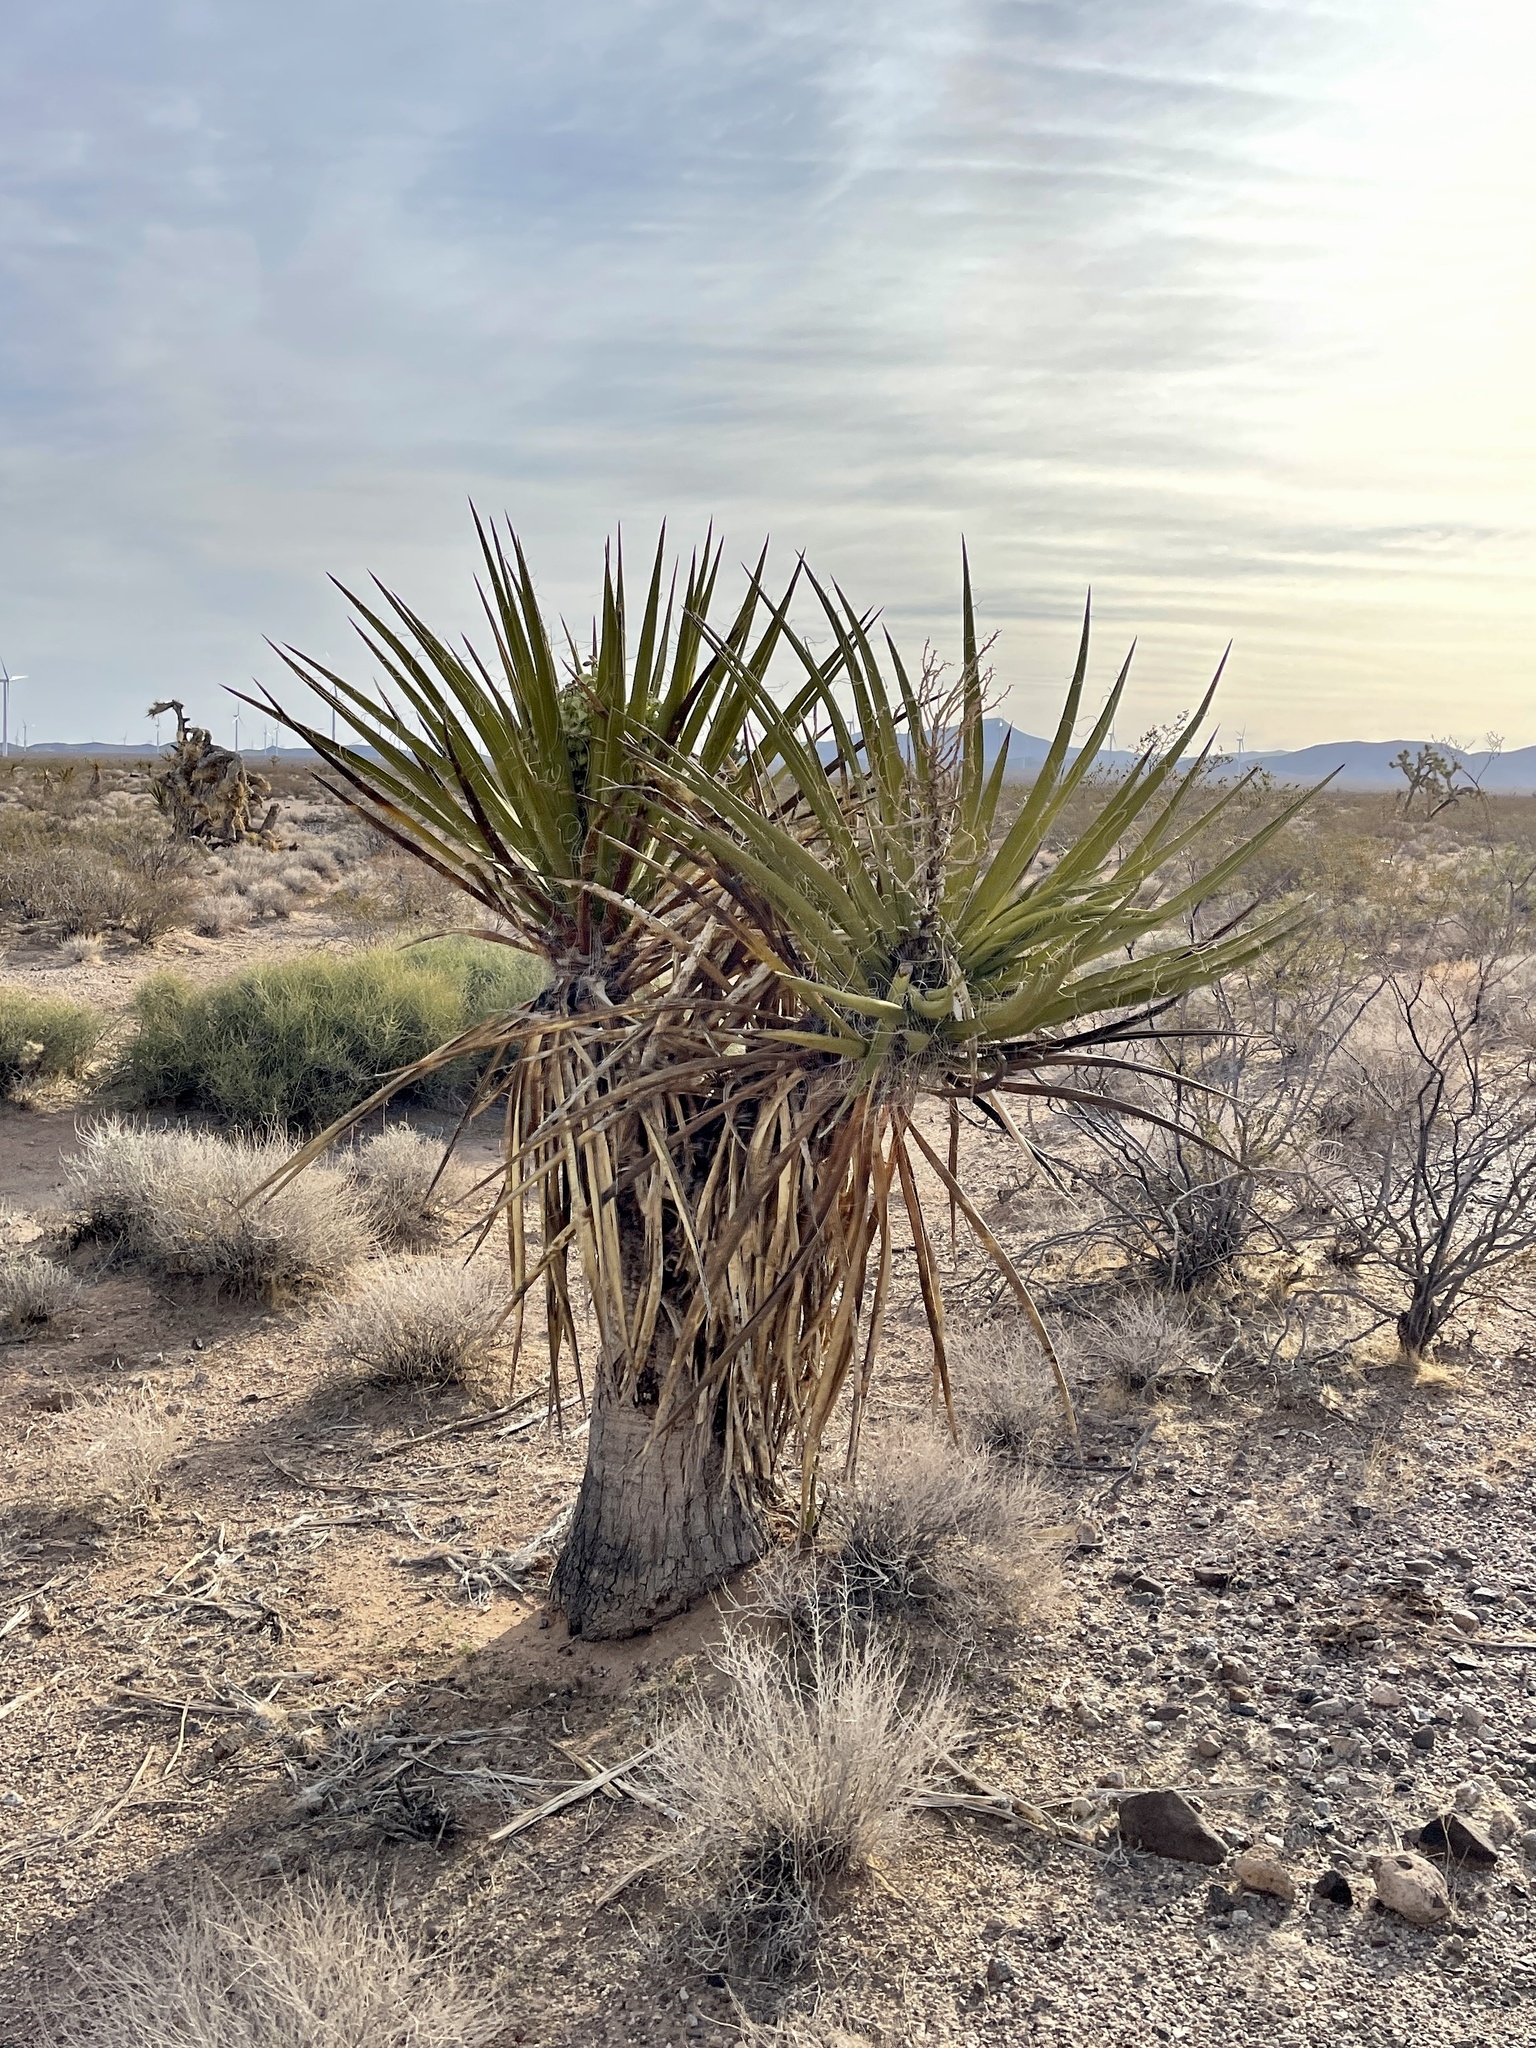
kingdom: Plantae
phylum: Tracheophyta
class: Liliopsida
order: Asparagales
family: Asparagaceae
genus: Yucca
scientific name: Yucca schidigera
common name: Mojave yucca
